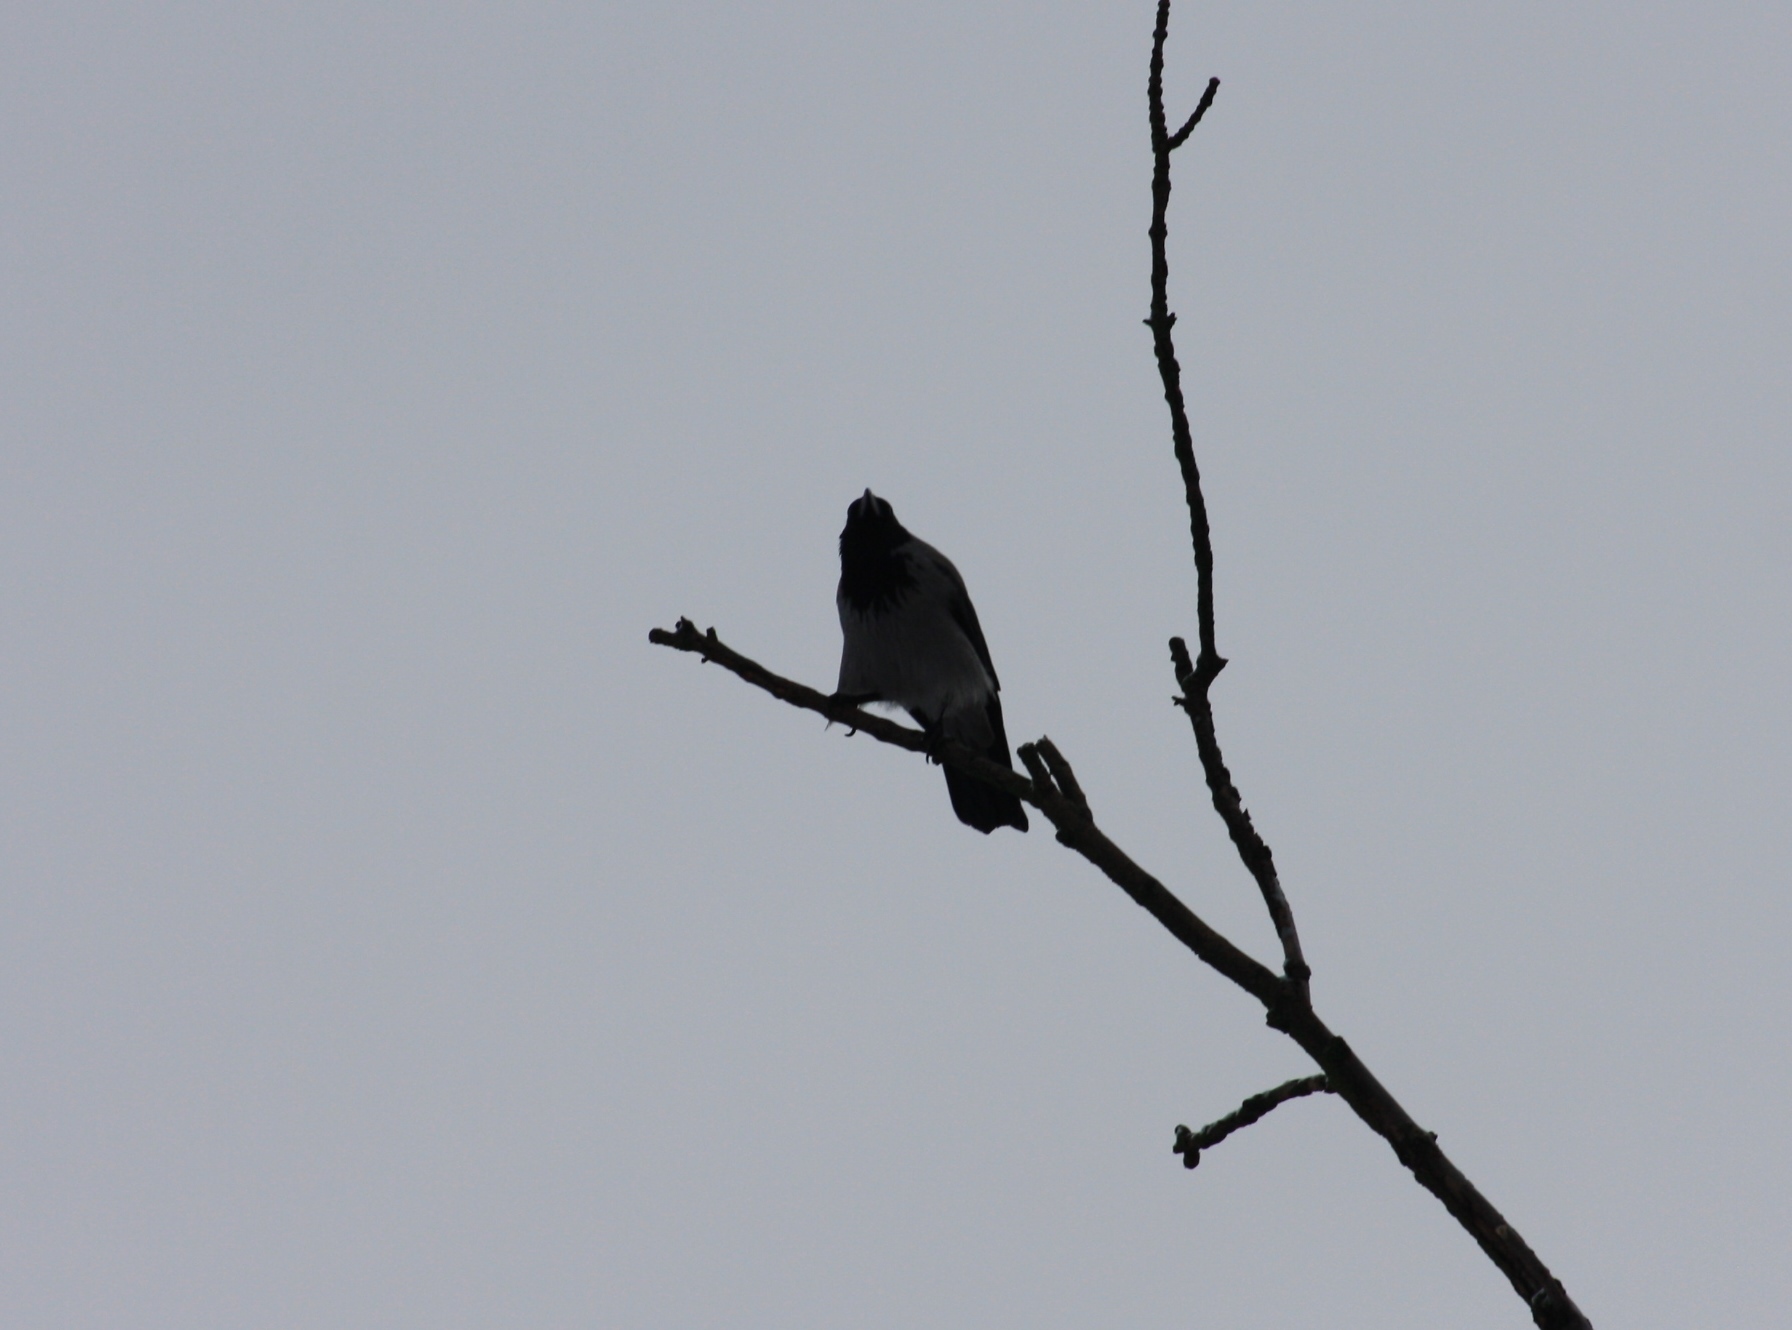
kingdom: Animalia
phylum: Chordata
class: Aves
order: Passeriformes
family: Corvidae
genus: Corvus
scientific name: Corvus cornix
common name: Hooded crow
